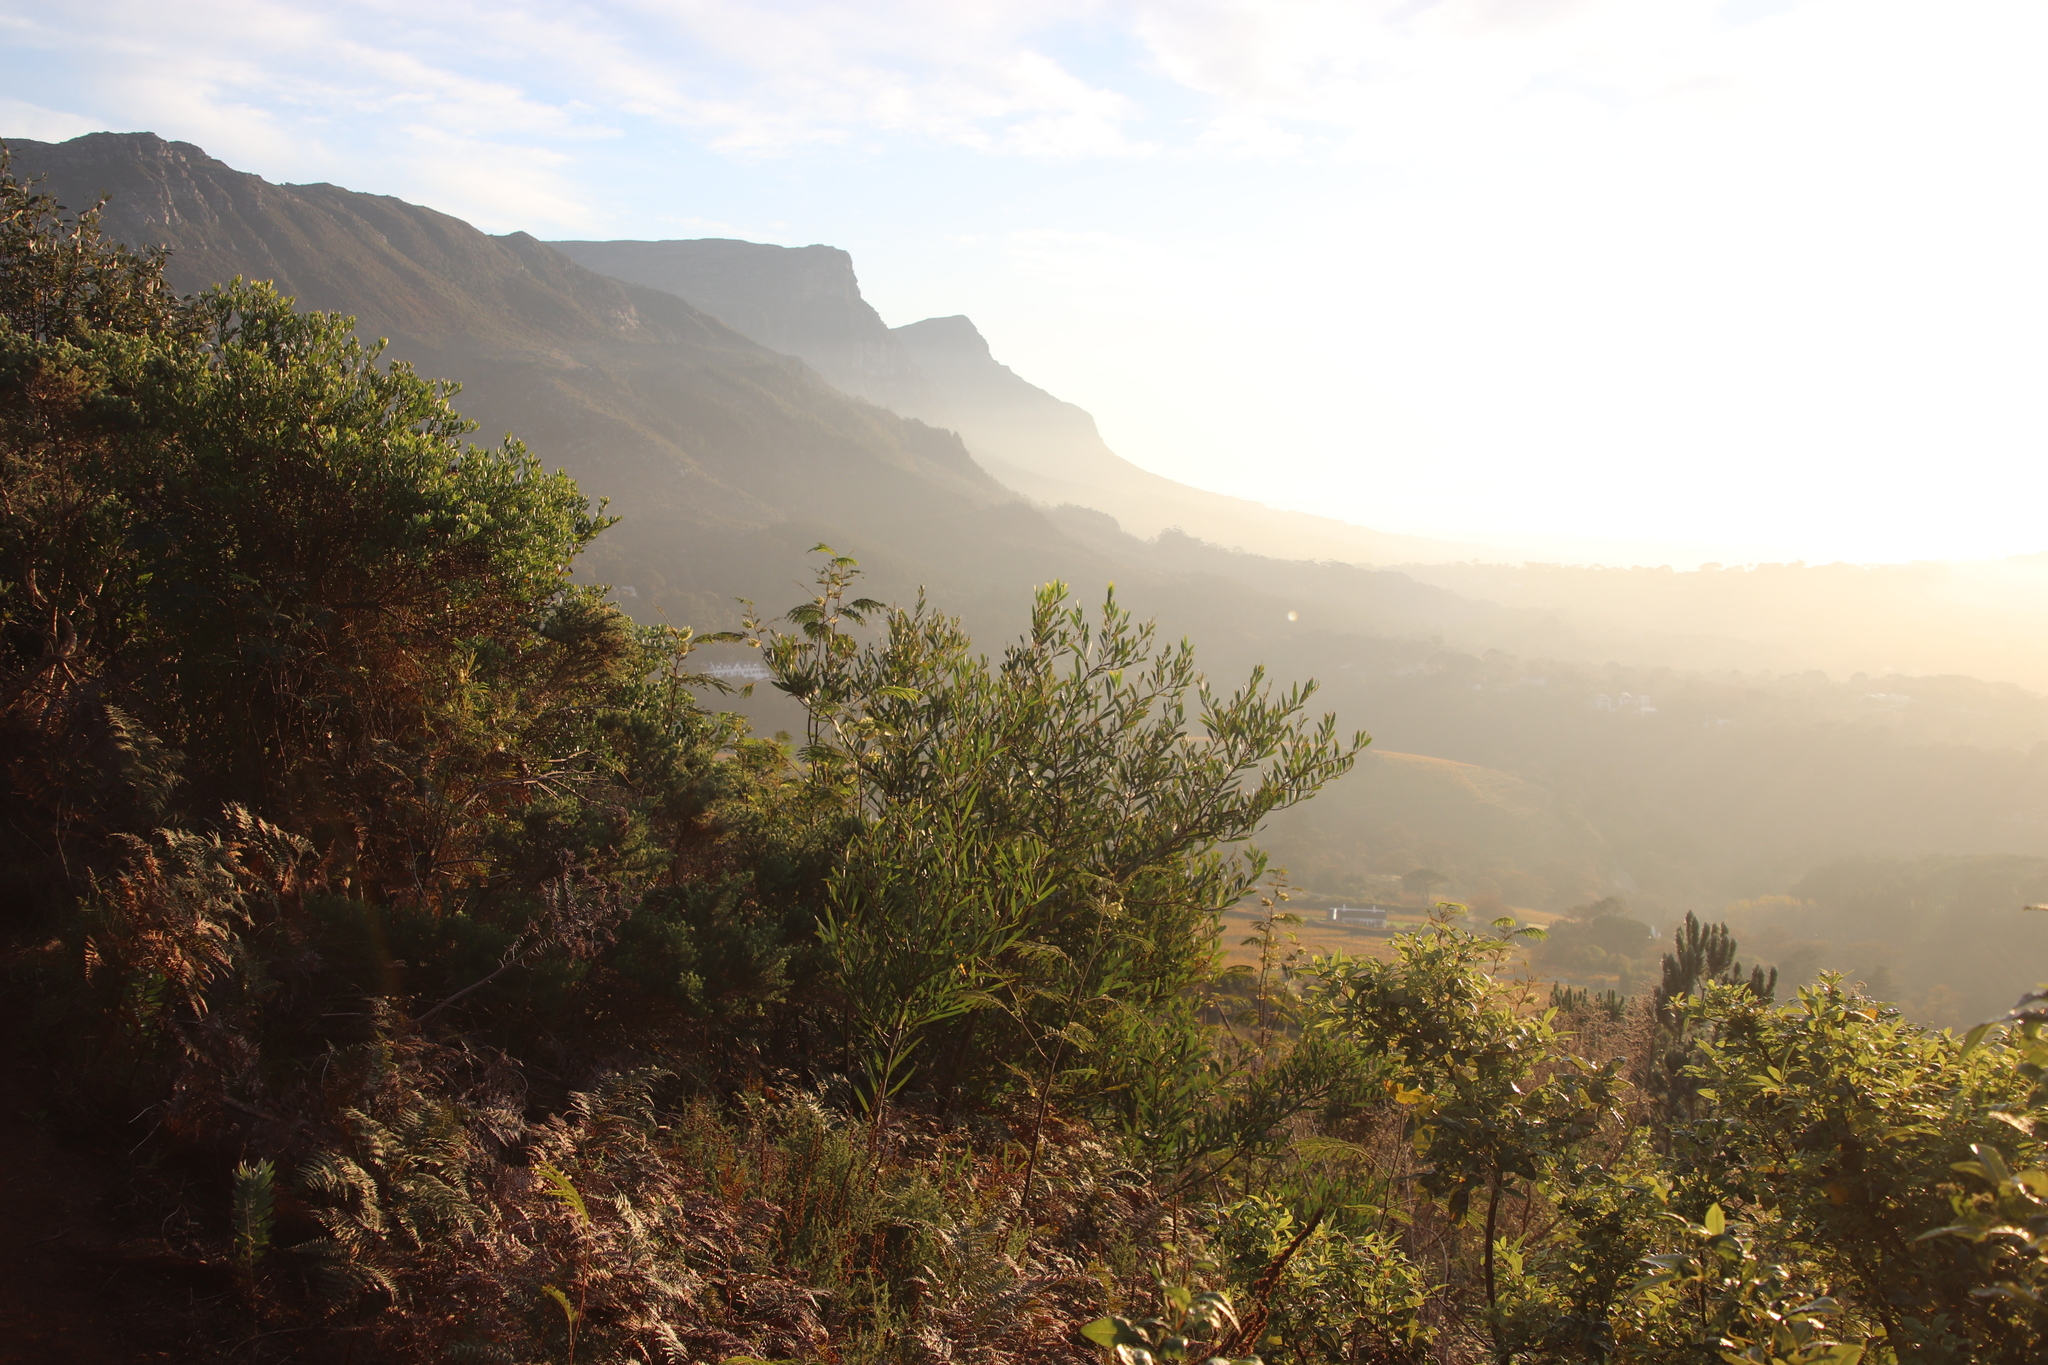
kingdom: Plantae
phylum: Tracheophyta
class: Magnoliopsida
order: Fabales
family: Fabaceae
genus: Acacia
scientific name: Acacia longifolia
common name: Sydney golden wattle
